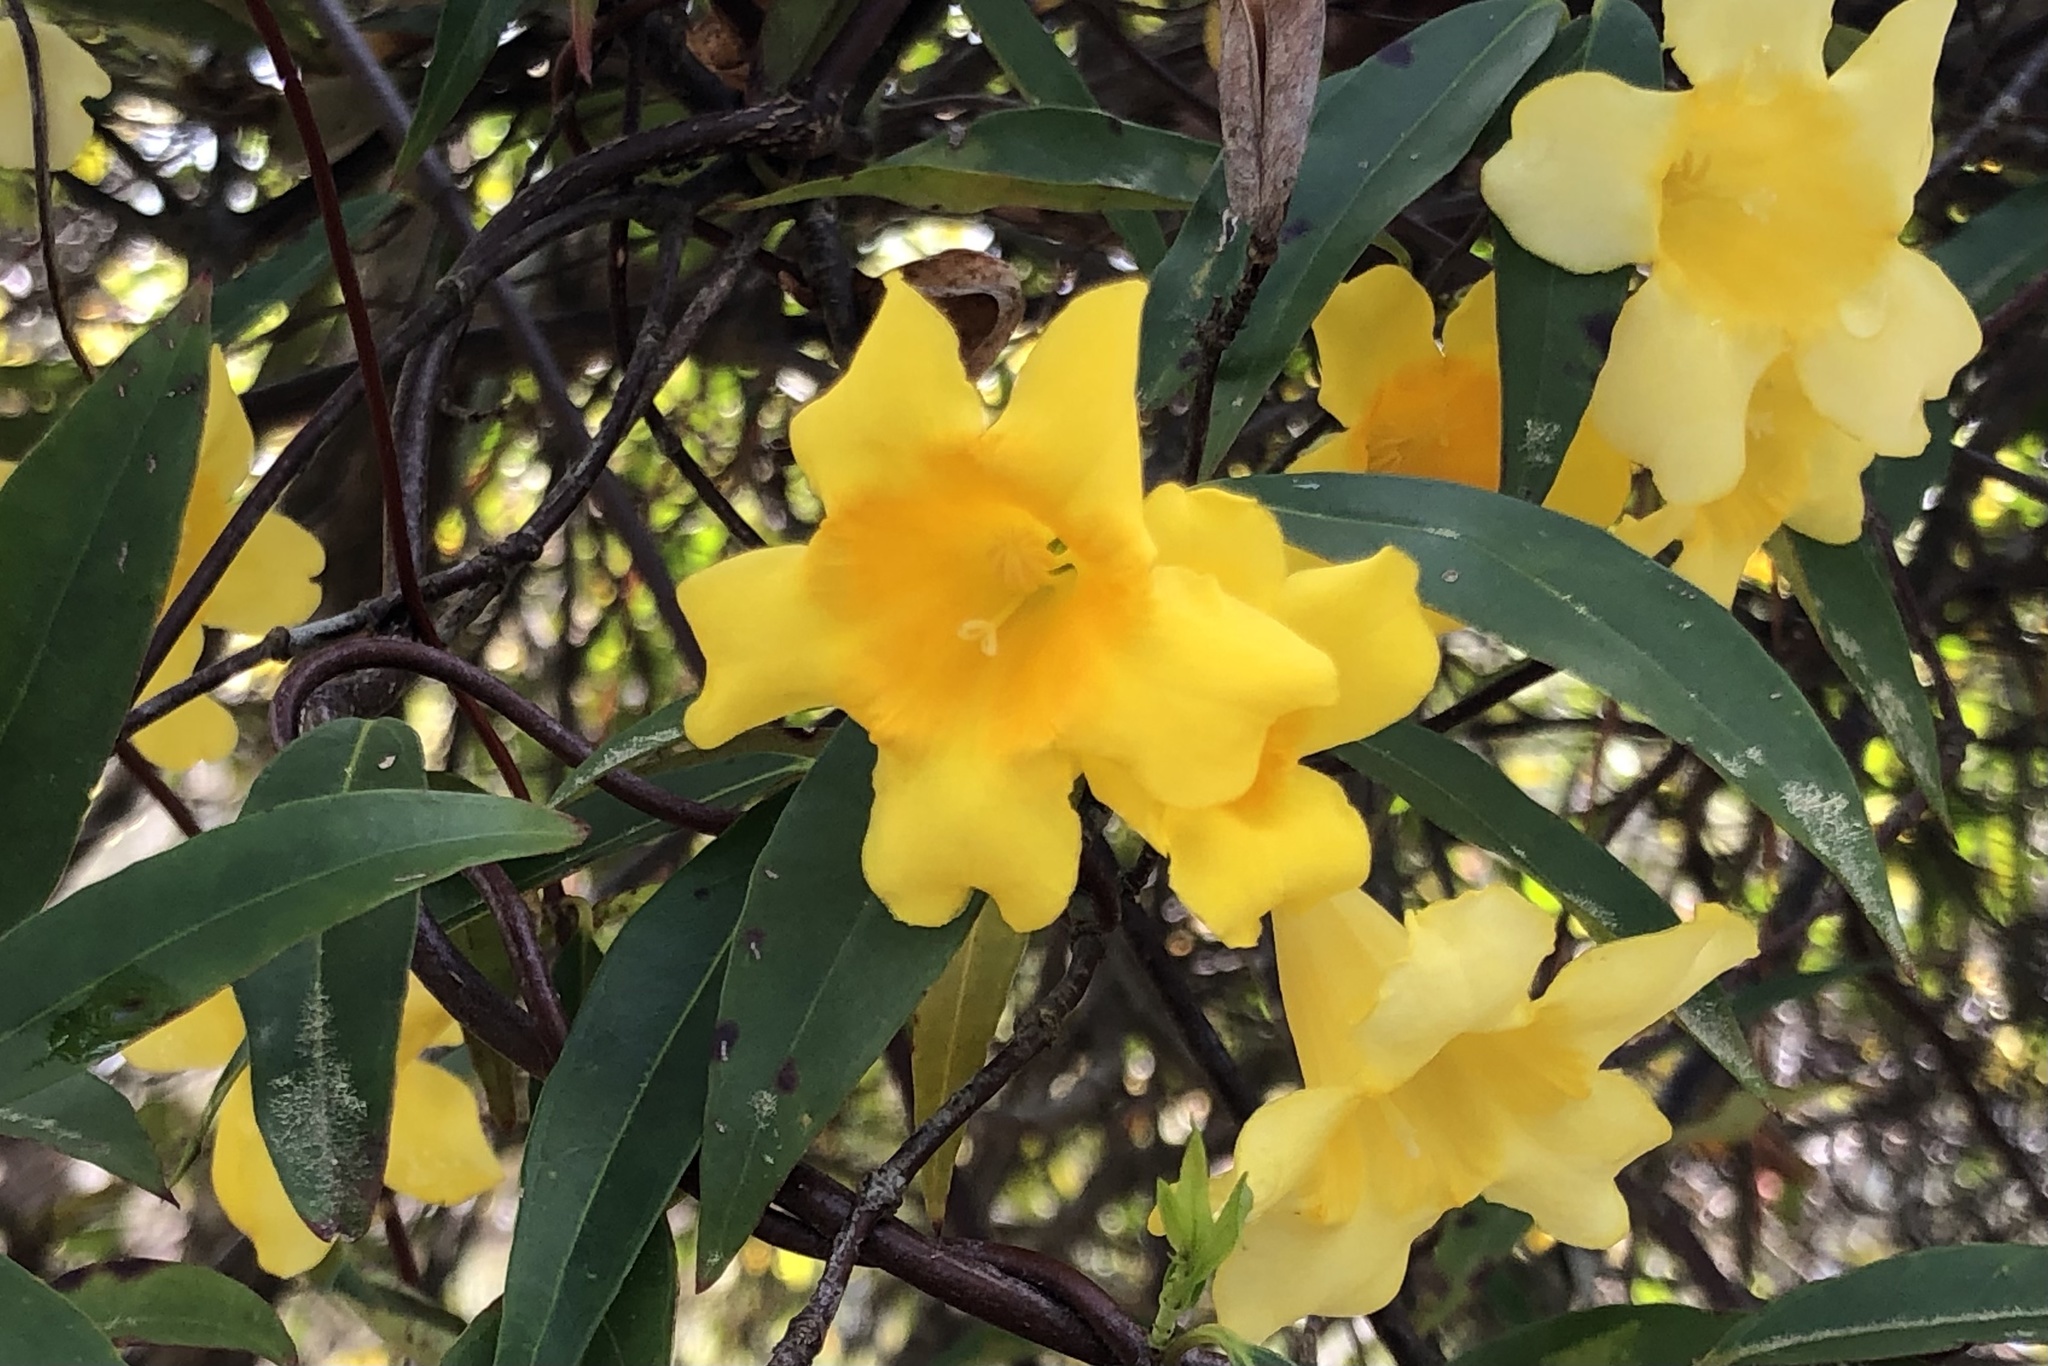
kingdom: Plantae
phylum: Tracheophyta
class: Magnoliopsida
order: Gentianales
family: Gelsemiaceae
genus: Gelsemium
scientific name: Gelsemium sempervirens
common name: Carolina-jasmine
